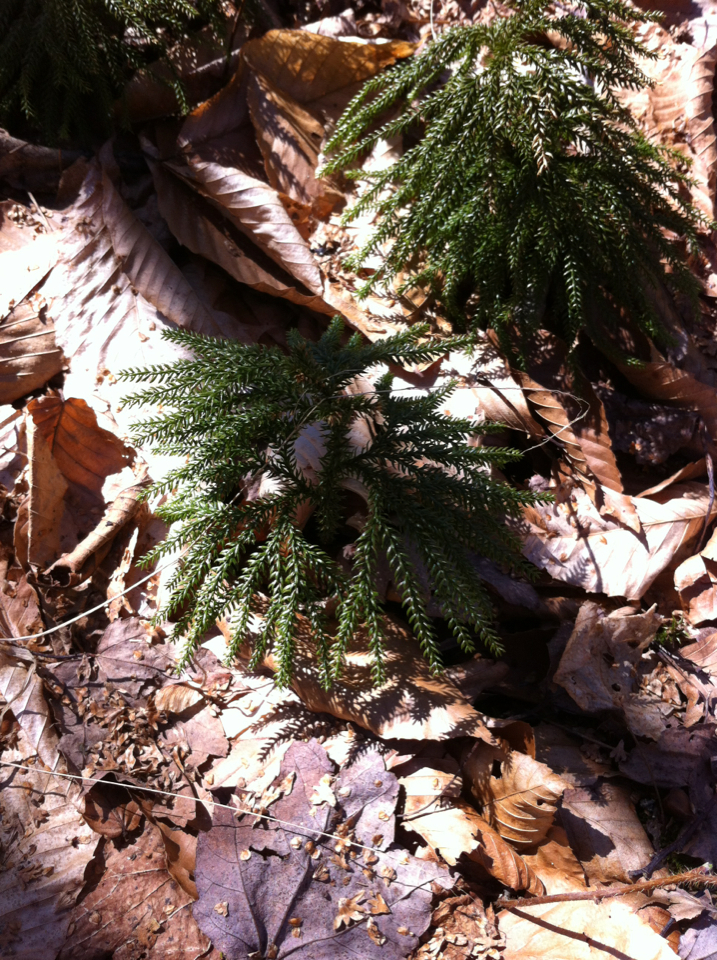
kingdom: Plantae
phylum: Tracheophyta
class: Lycopodiopsida
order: Lycopodiales
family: Lycopodiaceae
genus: Dendrolycopodium
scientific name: Dendrolycopodium dendroideum
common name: Northern tree-clubmoss
